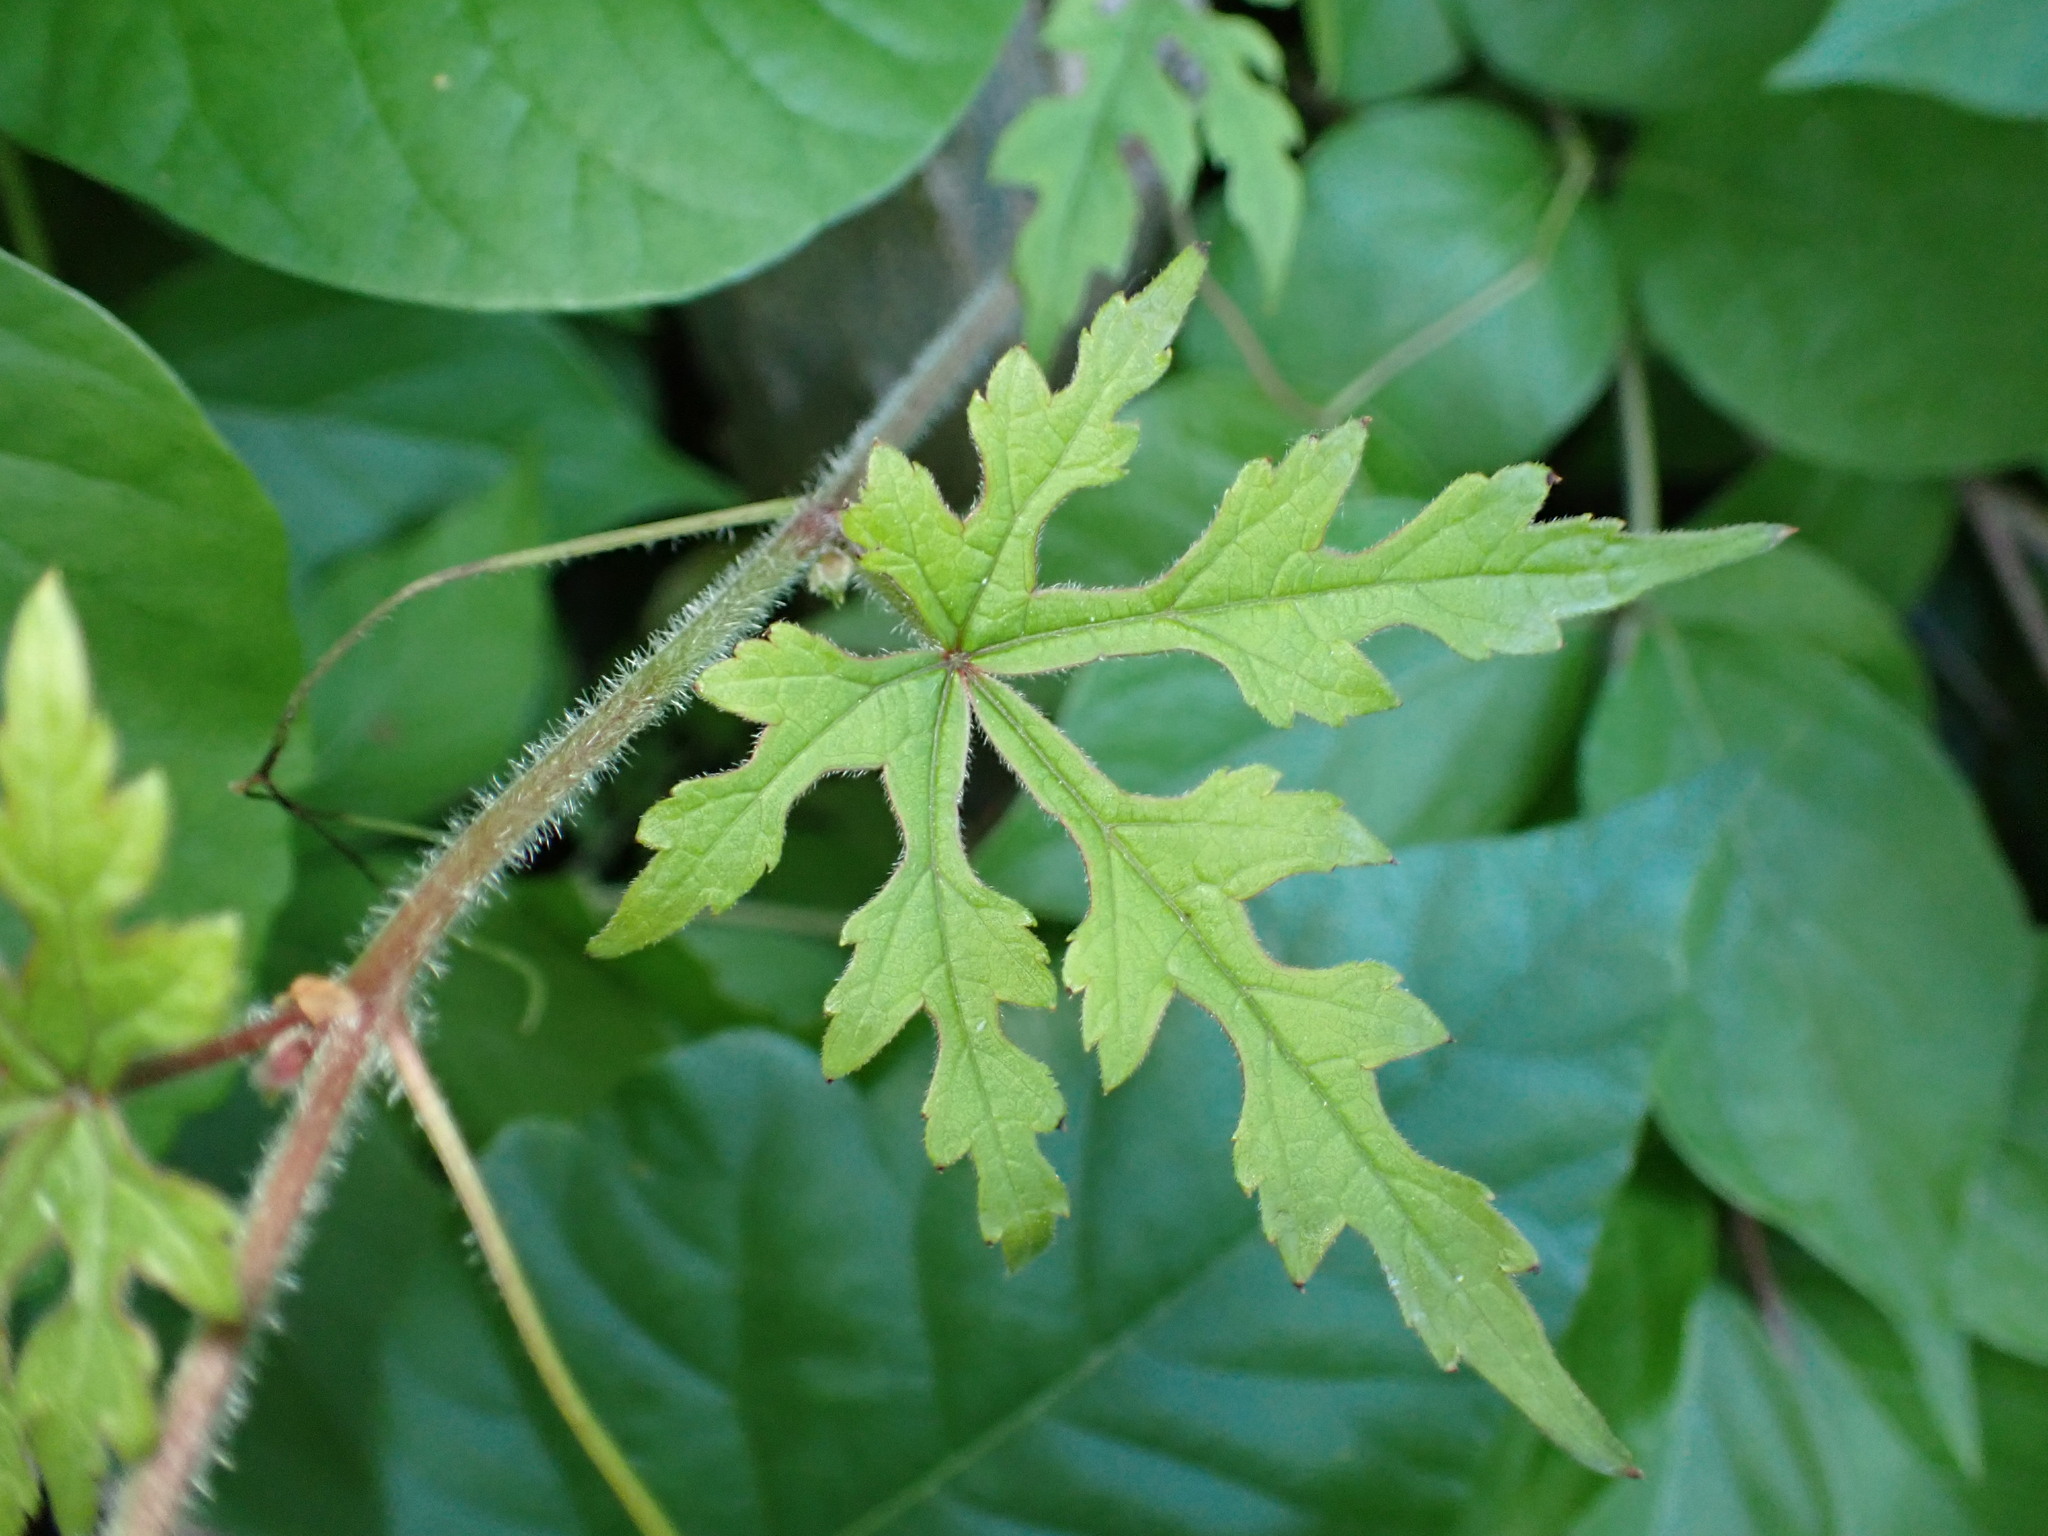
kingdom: Plantae
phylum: Tracheophyta
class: Magnoliopsida
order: Vitales
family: Vitaceae
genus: Ampelopsis
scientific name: Ampelopsis glandulosa
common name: Amur peppervine
